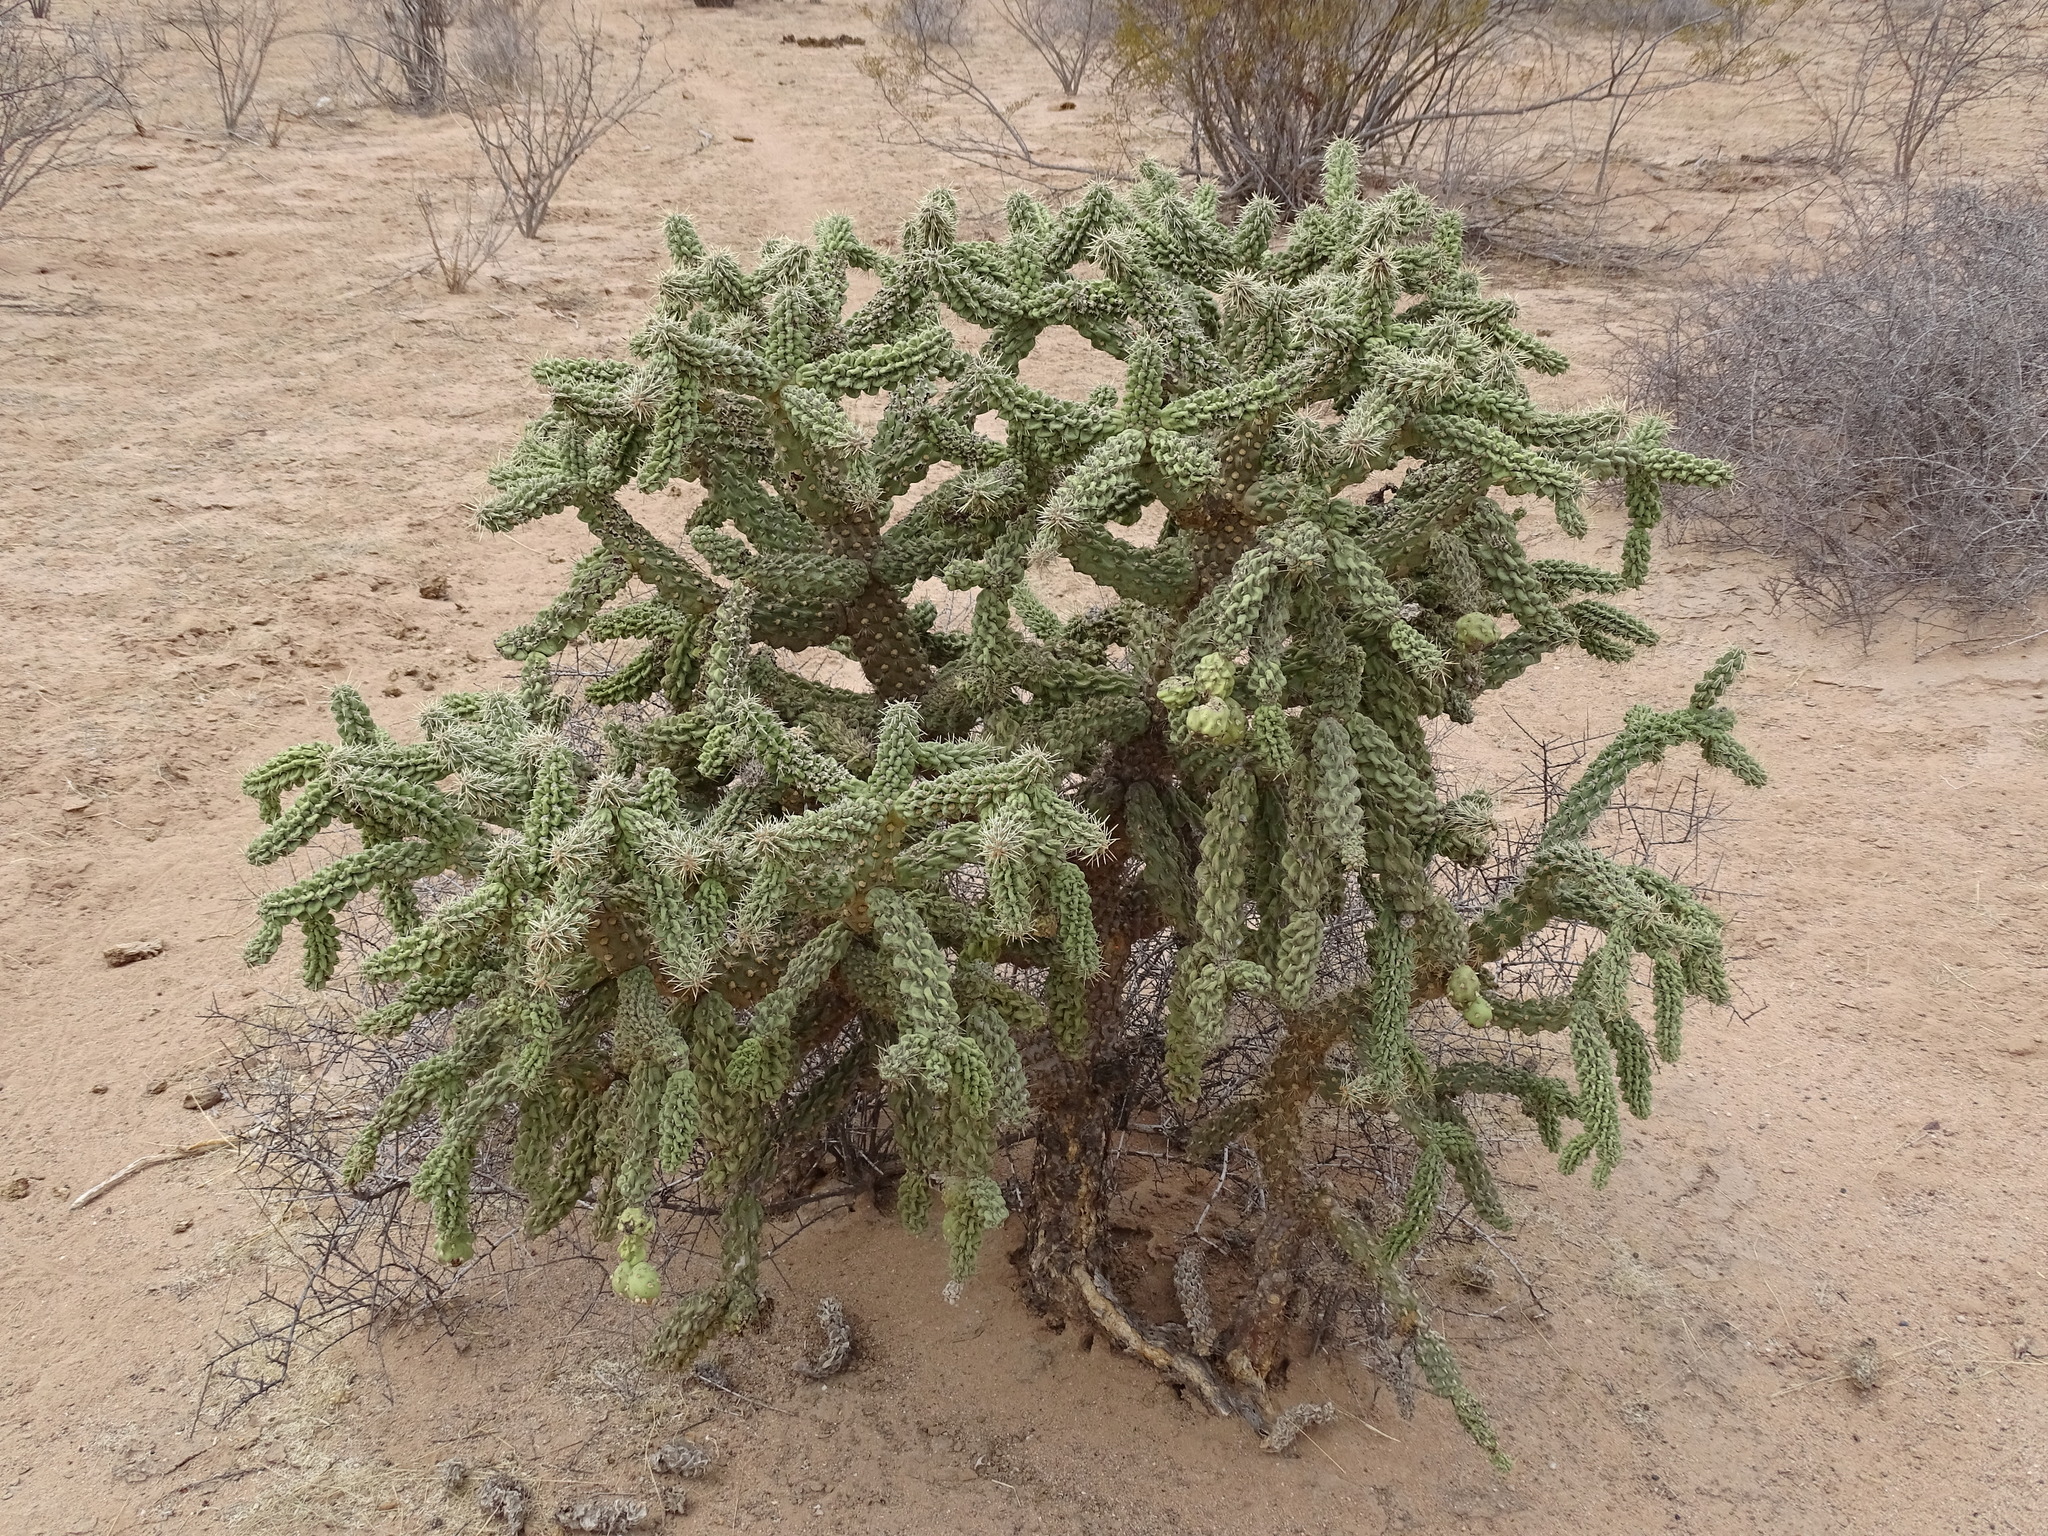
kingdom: Plantae
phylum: Tracheophyta
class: Magnoliopsida
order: Caryophyllales
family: Cactaceae
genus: Cylindropuntia
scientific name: Cylindropuntia fulgida
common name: Jumping cholla
